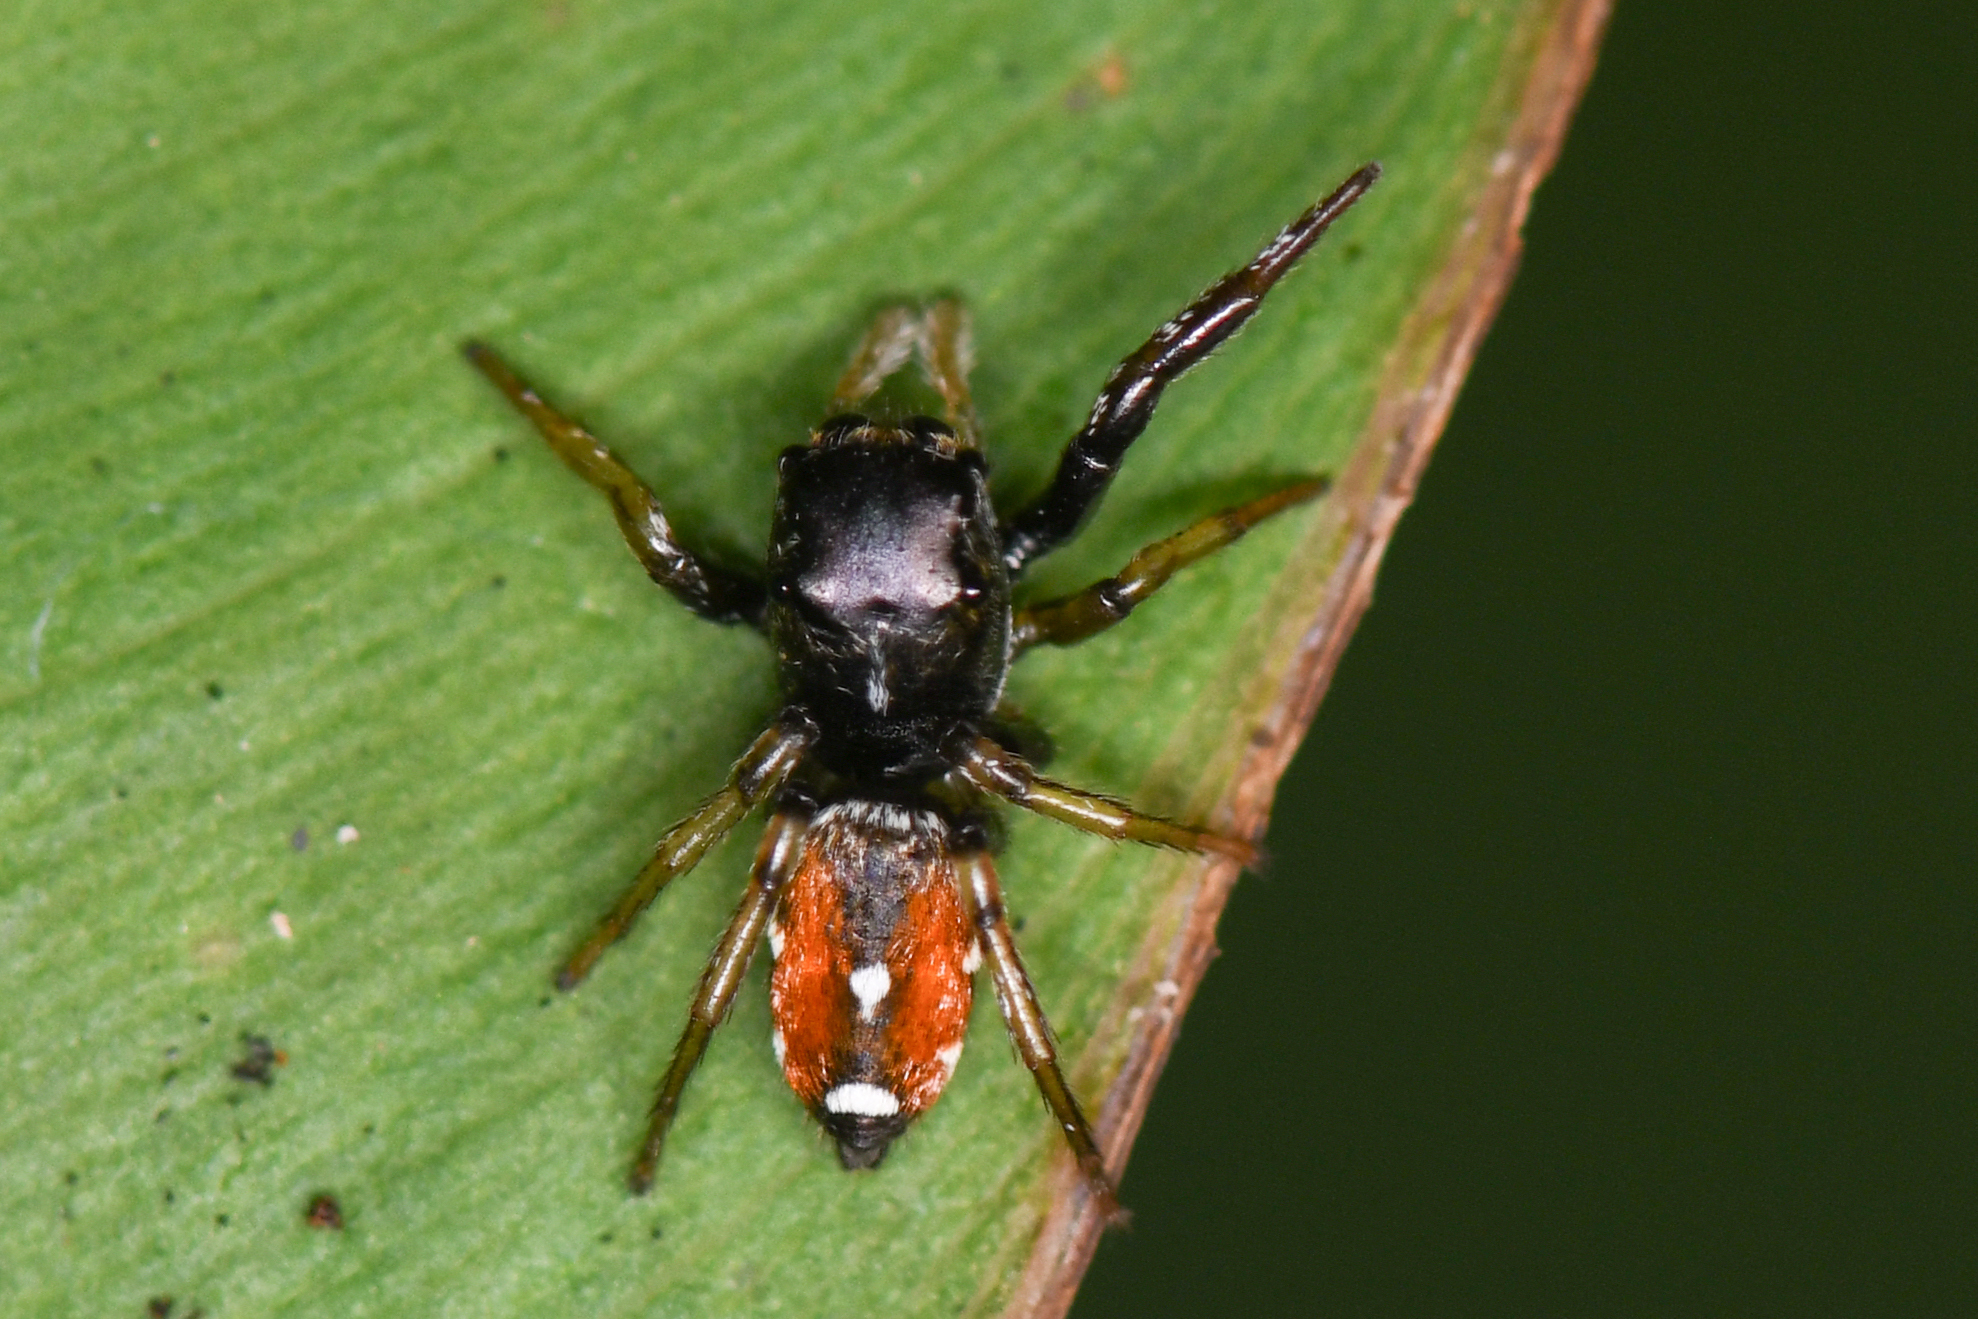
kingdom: Animalia
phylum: Arthropoda
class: Arachnida
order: Araneae
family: Salticidae
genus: Pachomius
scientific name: Pachomius dybowskii
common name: Jumping spiders
